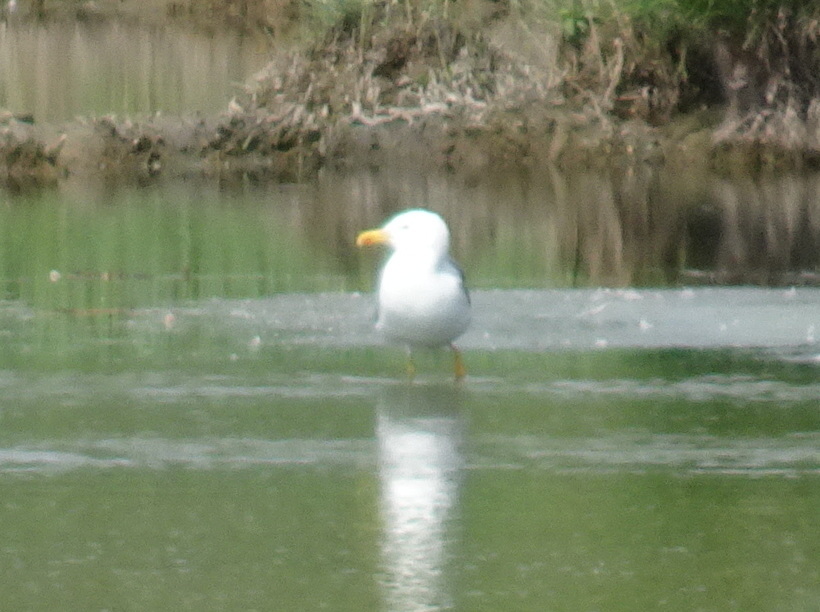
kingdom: Animalia
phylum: Chordata
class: Aves
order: Charadriiformes
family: Laridae
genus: Larus
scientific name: Larus michahellis
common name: Yellow-legged gull
